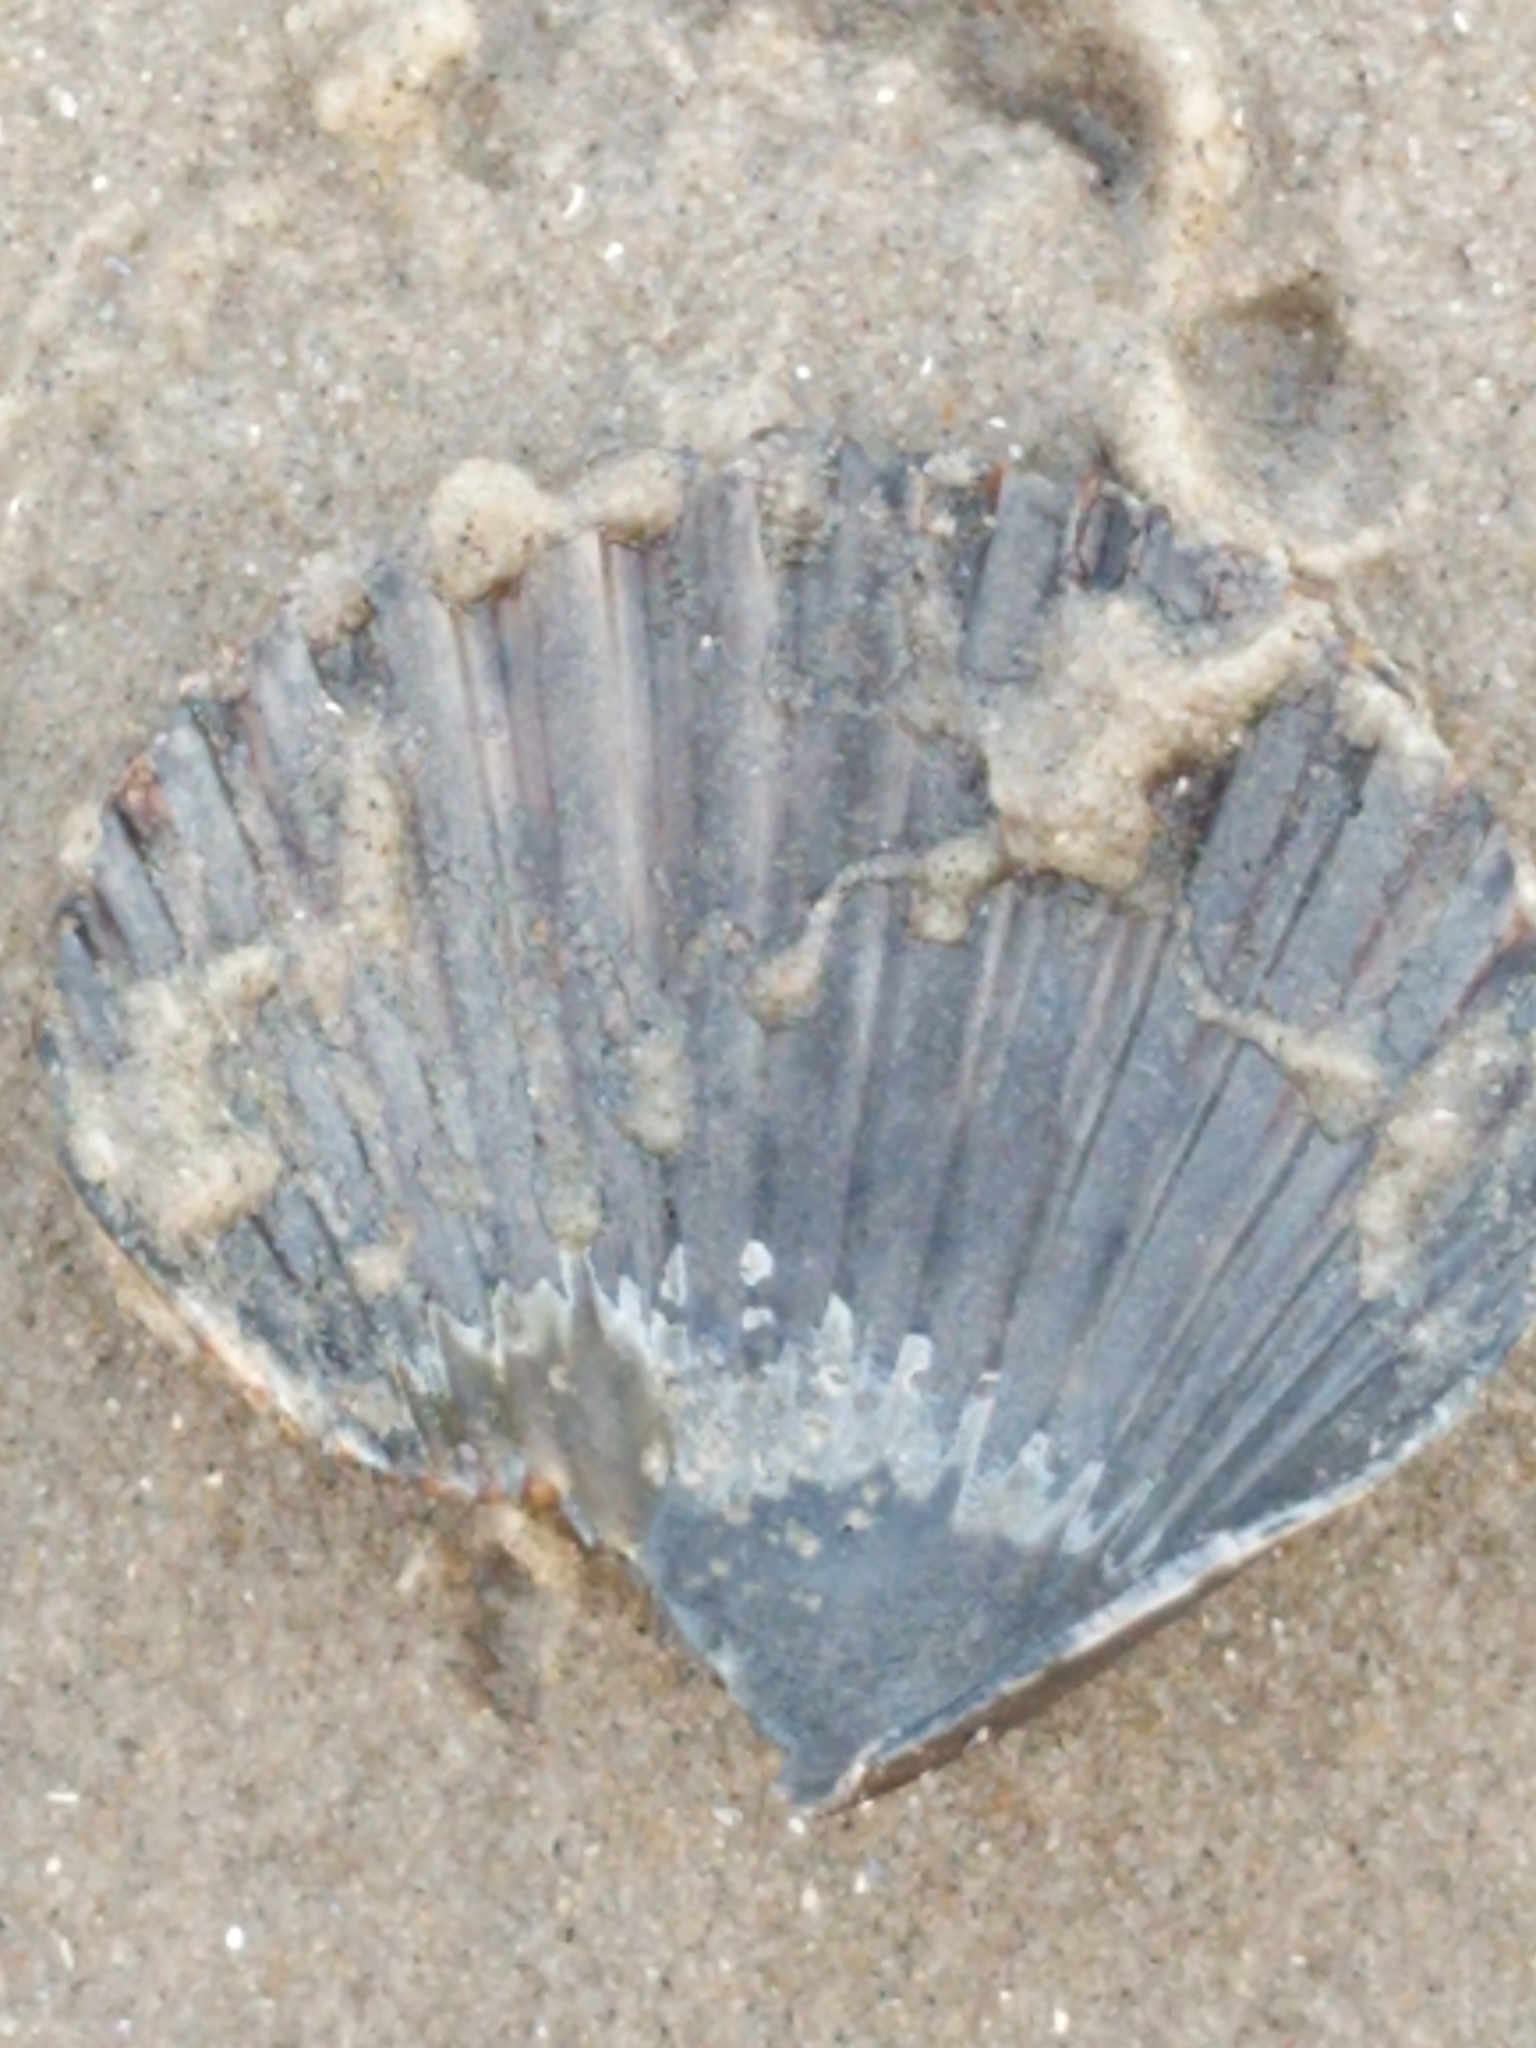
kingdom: Animalia
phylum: Mollusca
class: Bivalvia
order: Pectinida
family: Pectinidae
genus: Argopecten
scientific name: Argopecten irradians
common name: Atlantic bay scallop
